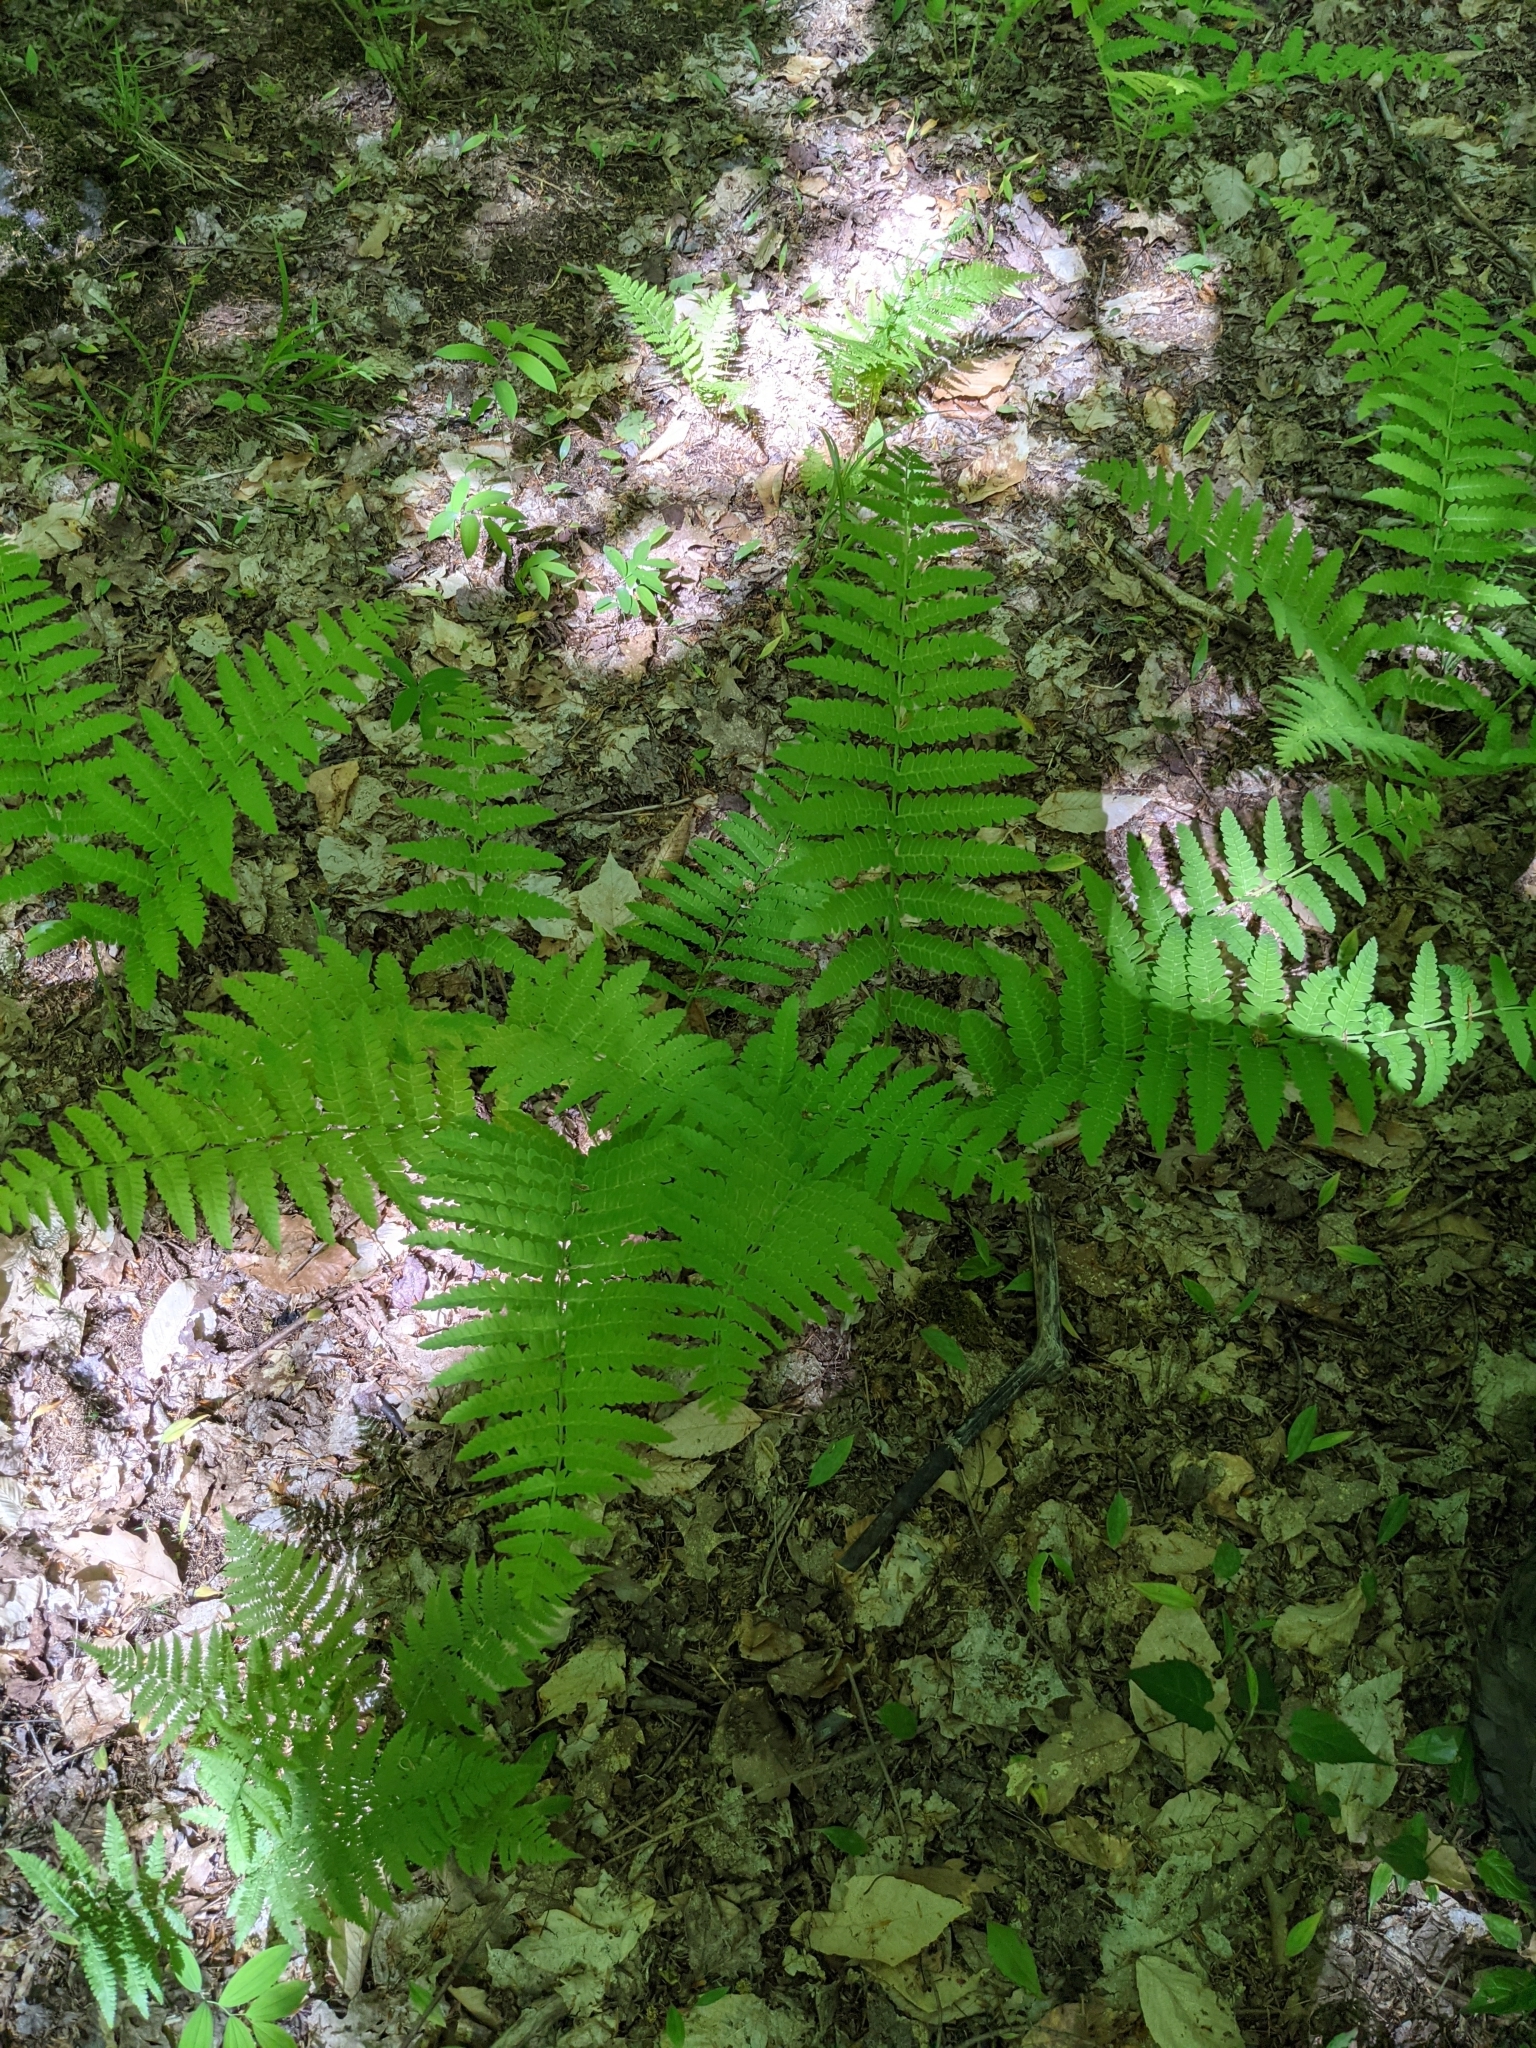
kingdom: Plantae
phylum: Tracheophyta
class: Polypodiopsida
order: Osmundales
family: Osmundaceae
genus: Claytosmunda
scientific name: Claytosmunda claytoniana
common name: Clayton's fern
